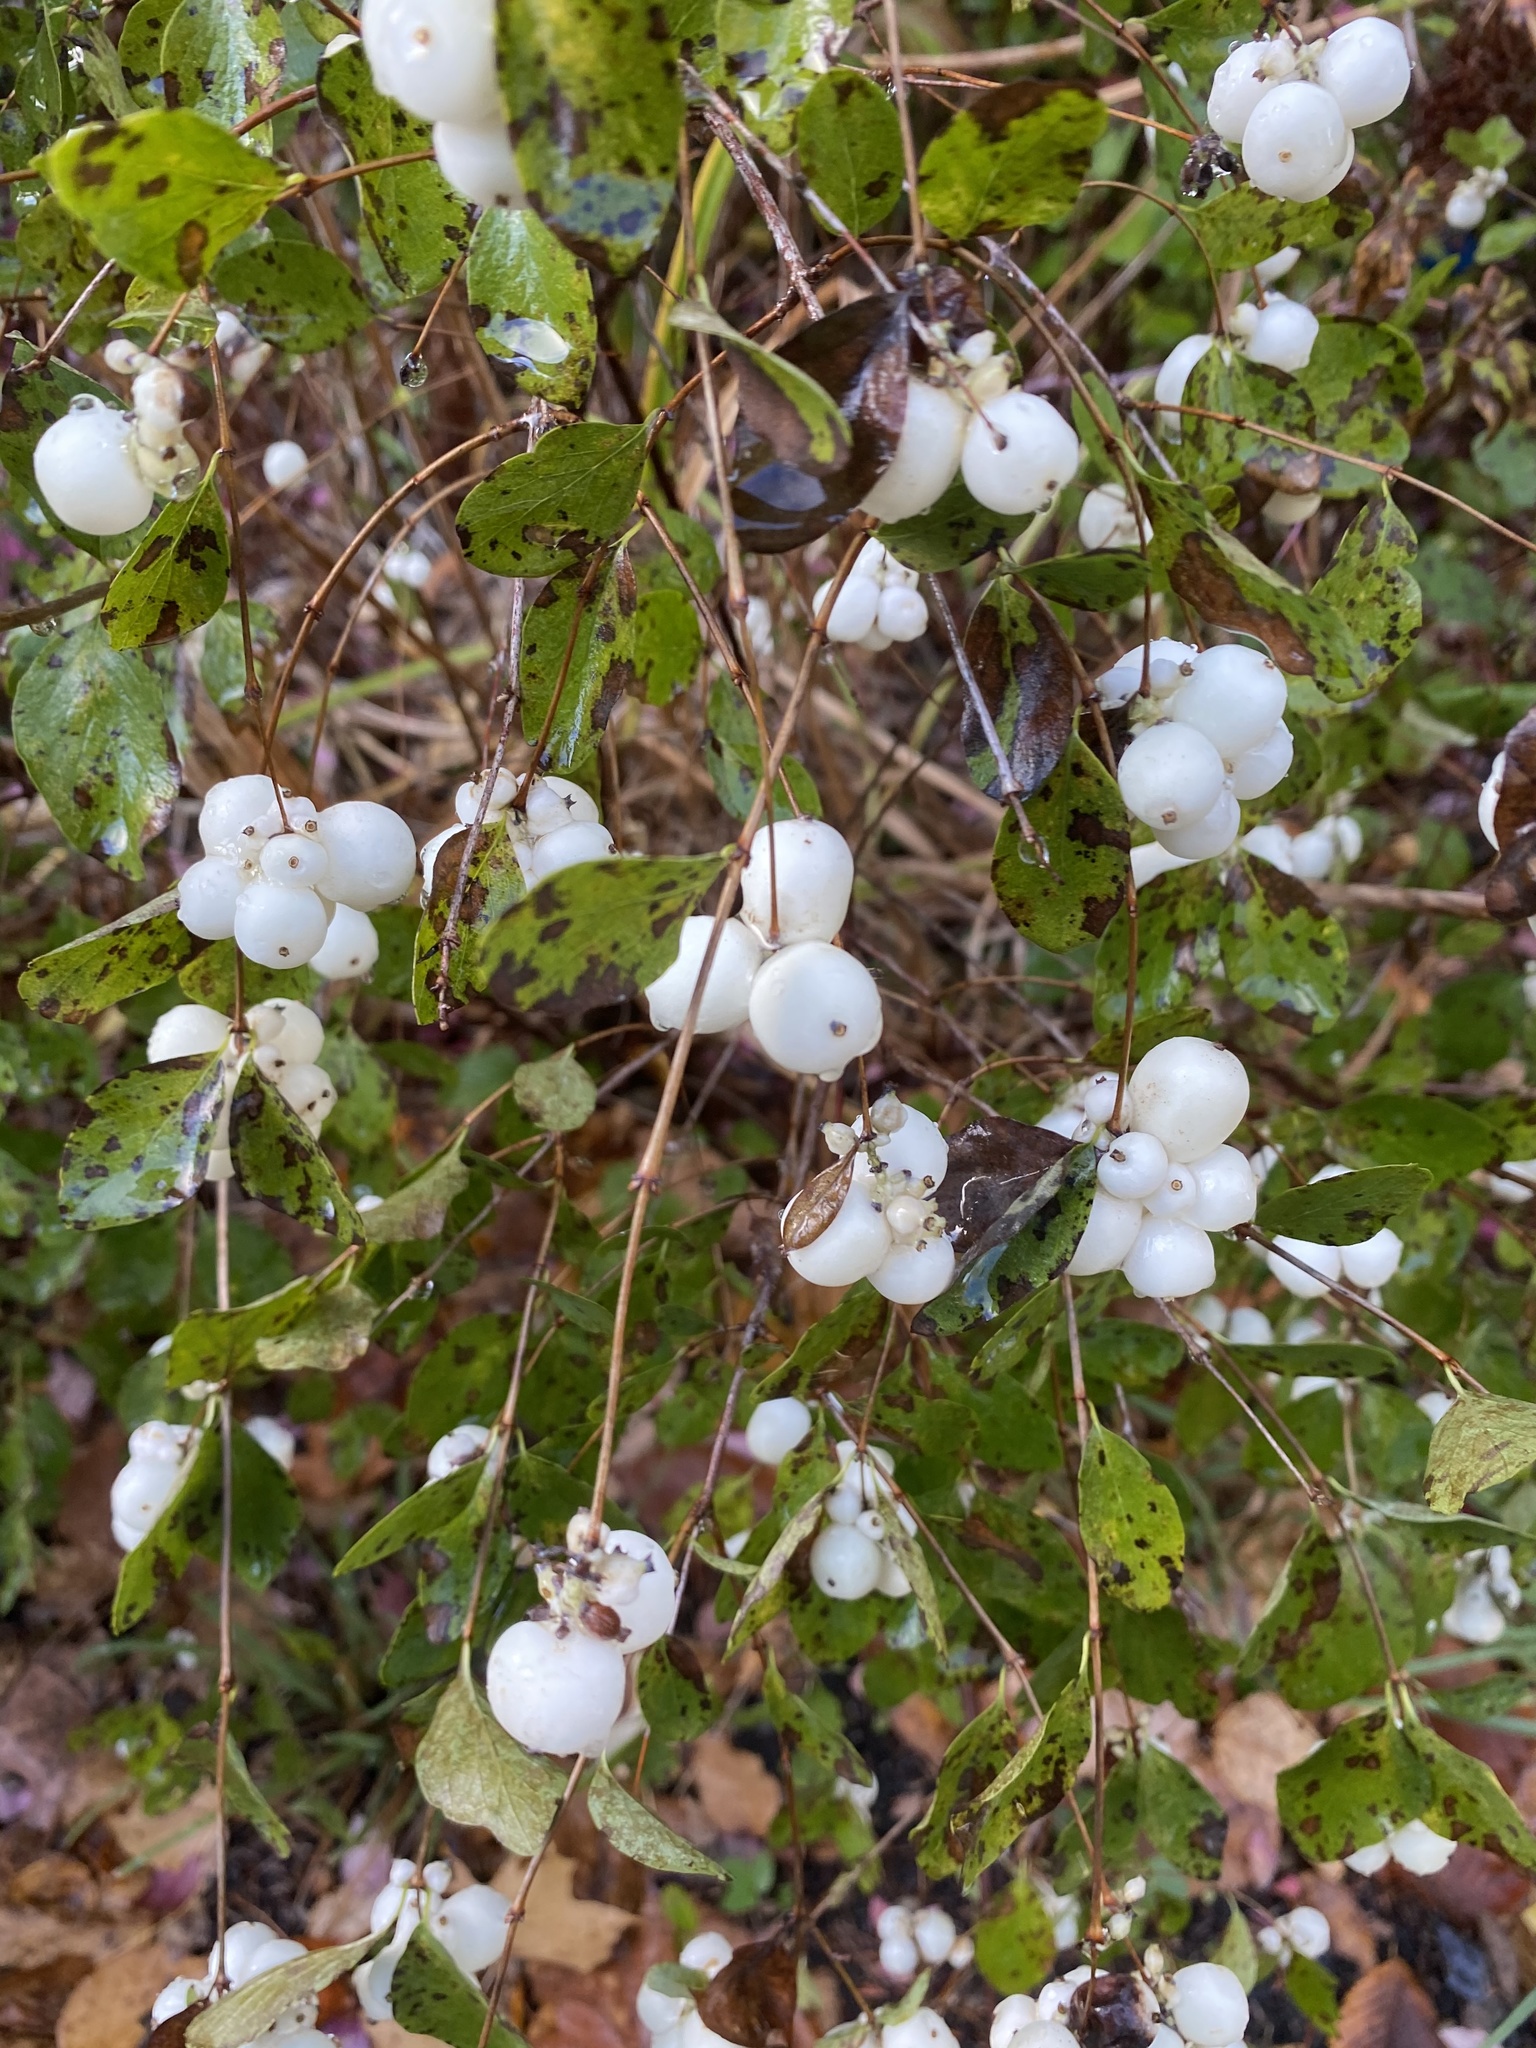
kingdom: Plantae
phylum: Tracheophyta
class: Magnoliopsida
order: Dipsacales
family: Caprifoliaceae
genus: Symphoricarpos
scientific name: Symphoricarpos albus
